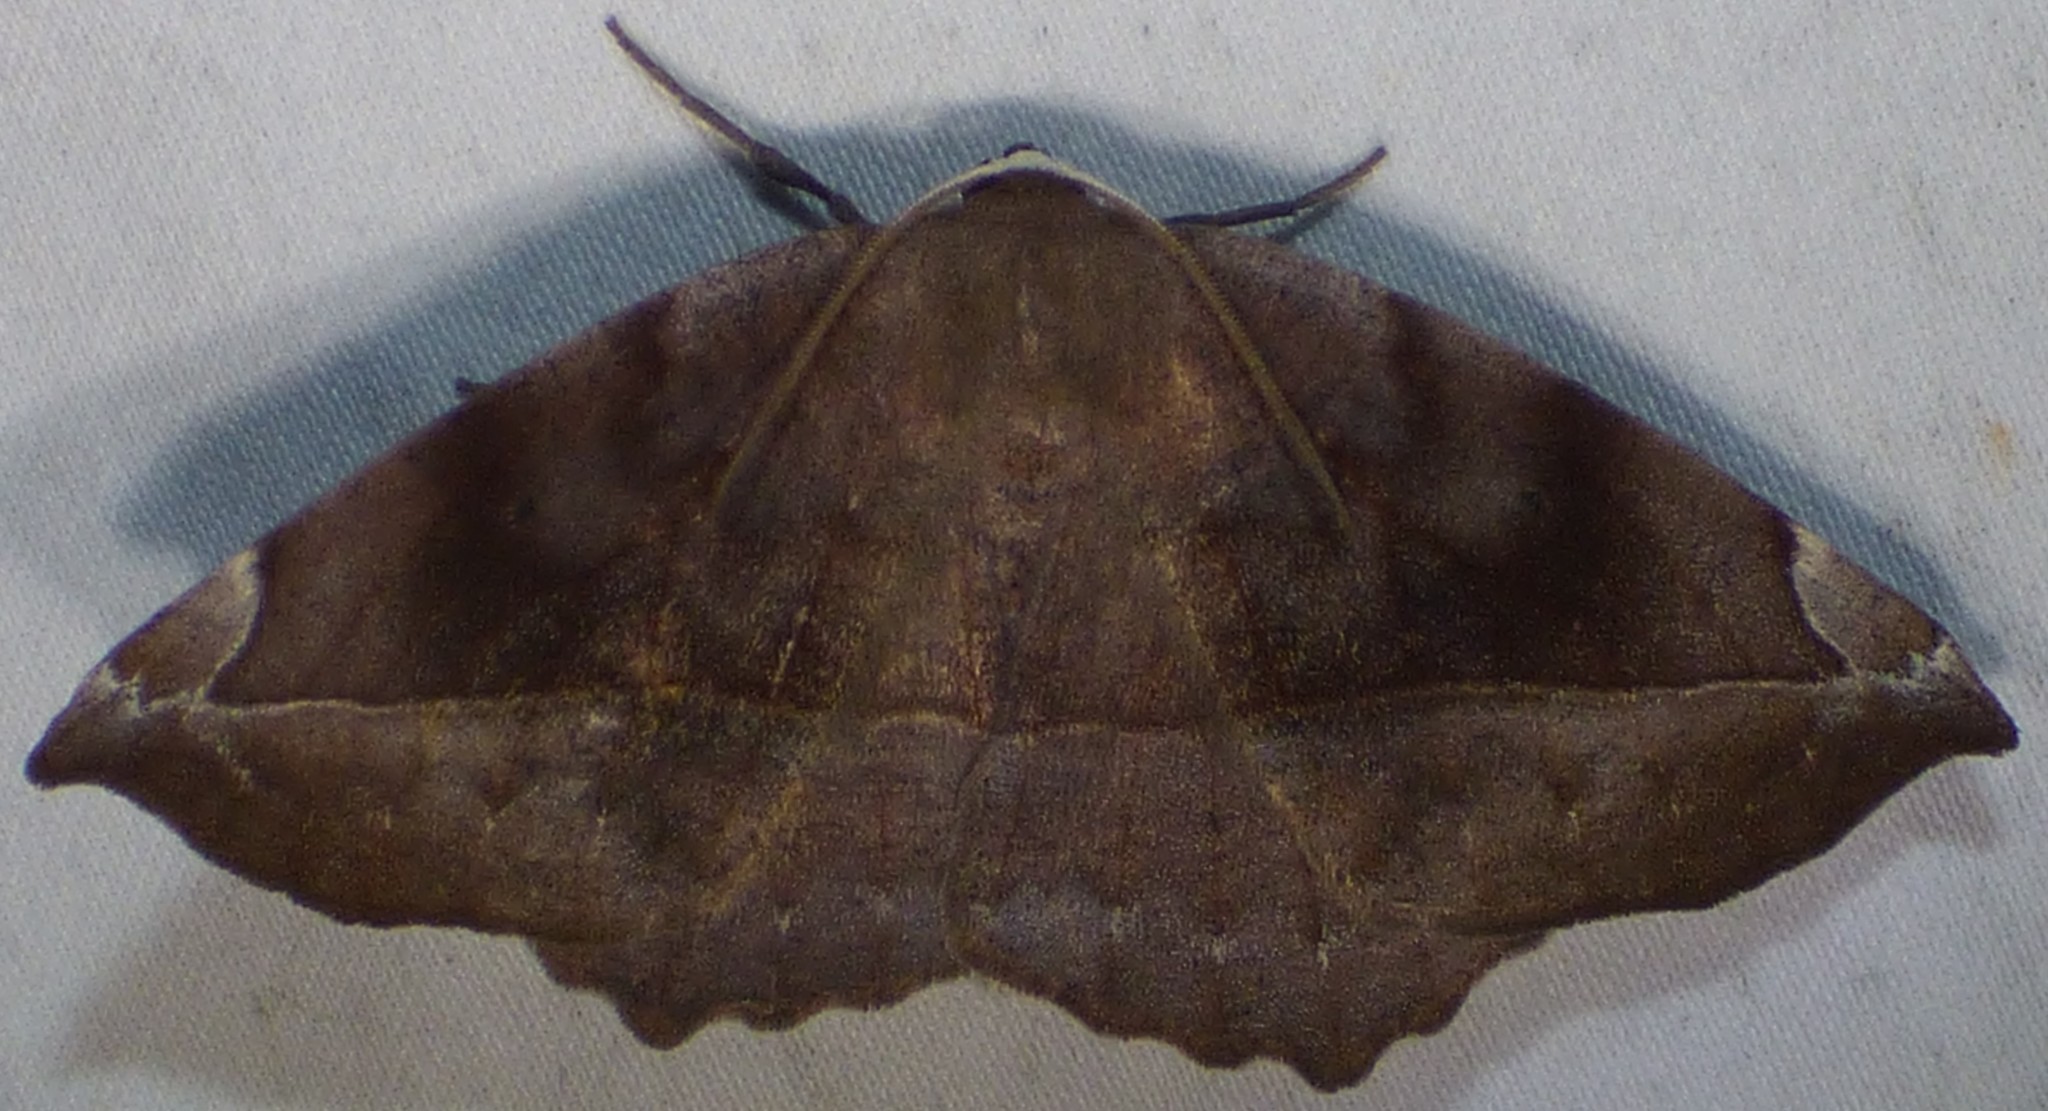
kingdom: Animalia
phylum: Arthropoda
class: Insecta
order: Lepidoptera
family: Geometridae
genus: Eutrapela
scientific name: Eutrapela clemataria
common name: Curved-toothed geometer
